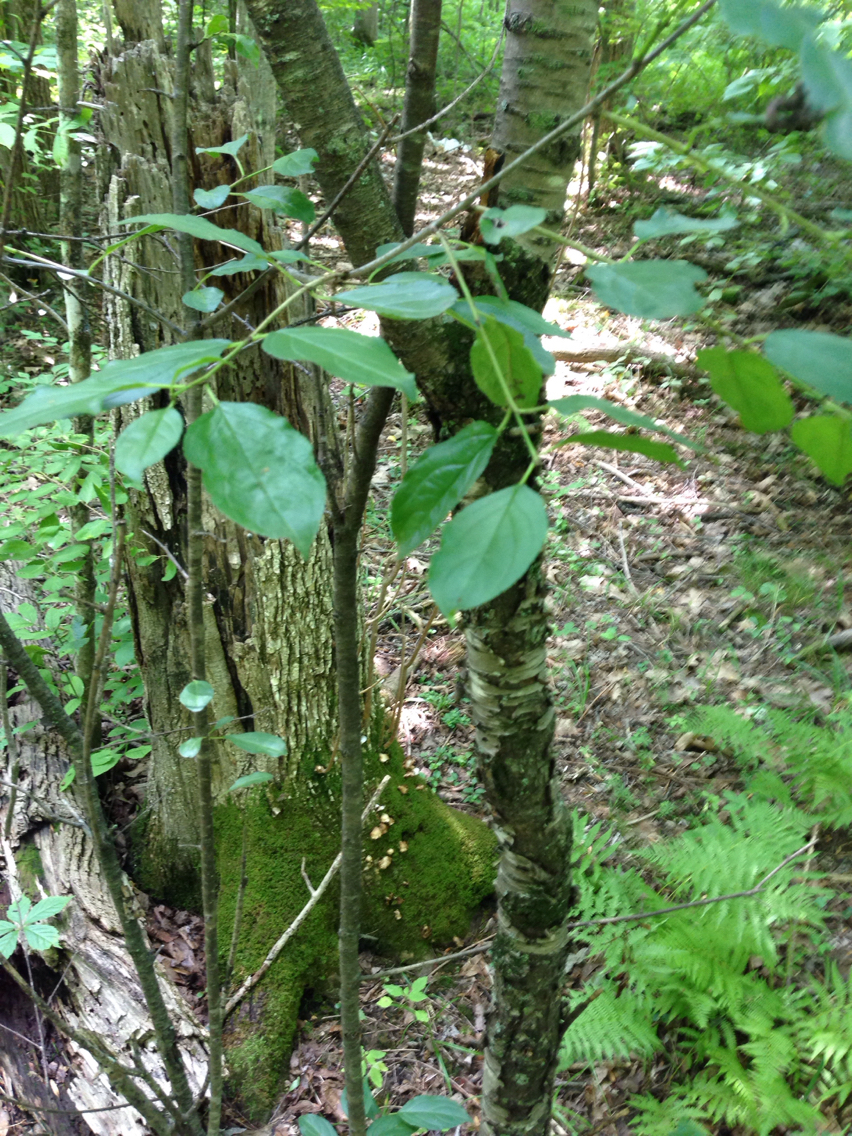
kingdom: Plantae
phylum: Tracheophyta
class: Magnoliopsida
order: Rosales
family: Rhamnaceae
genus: Rhamnus
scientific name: Rhamnus cathartica
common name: Common buckthorn
